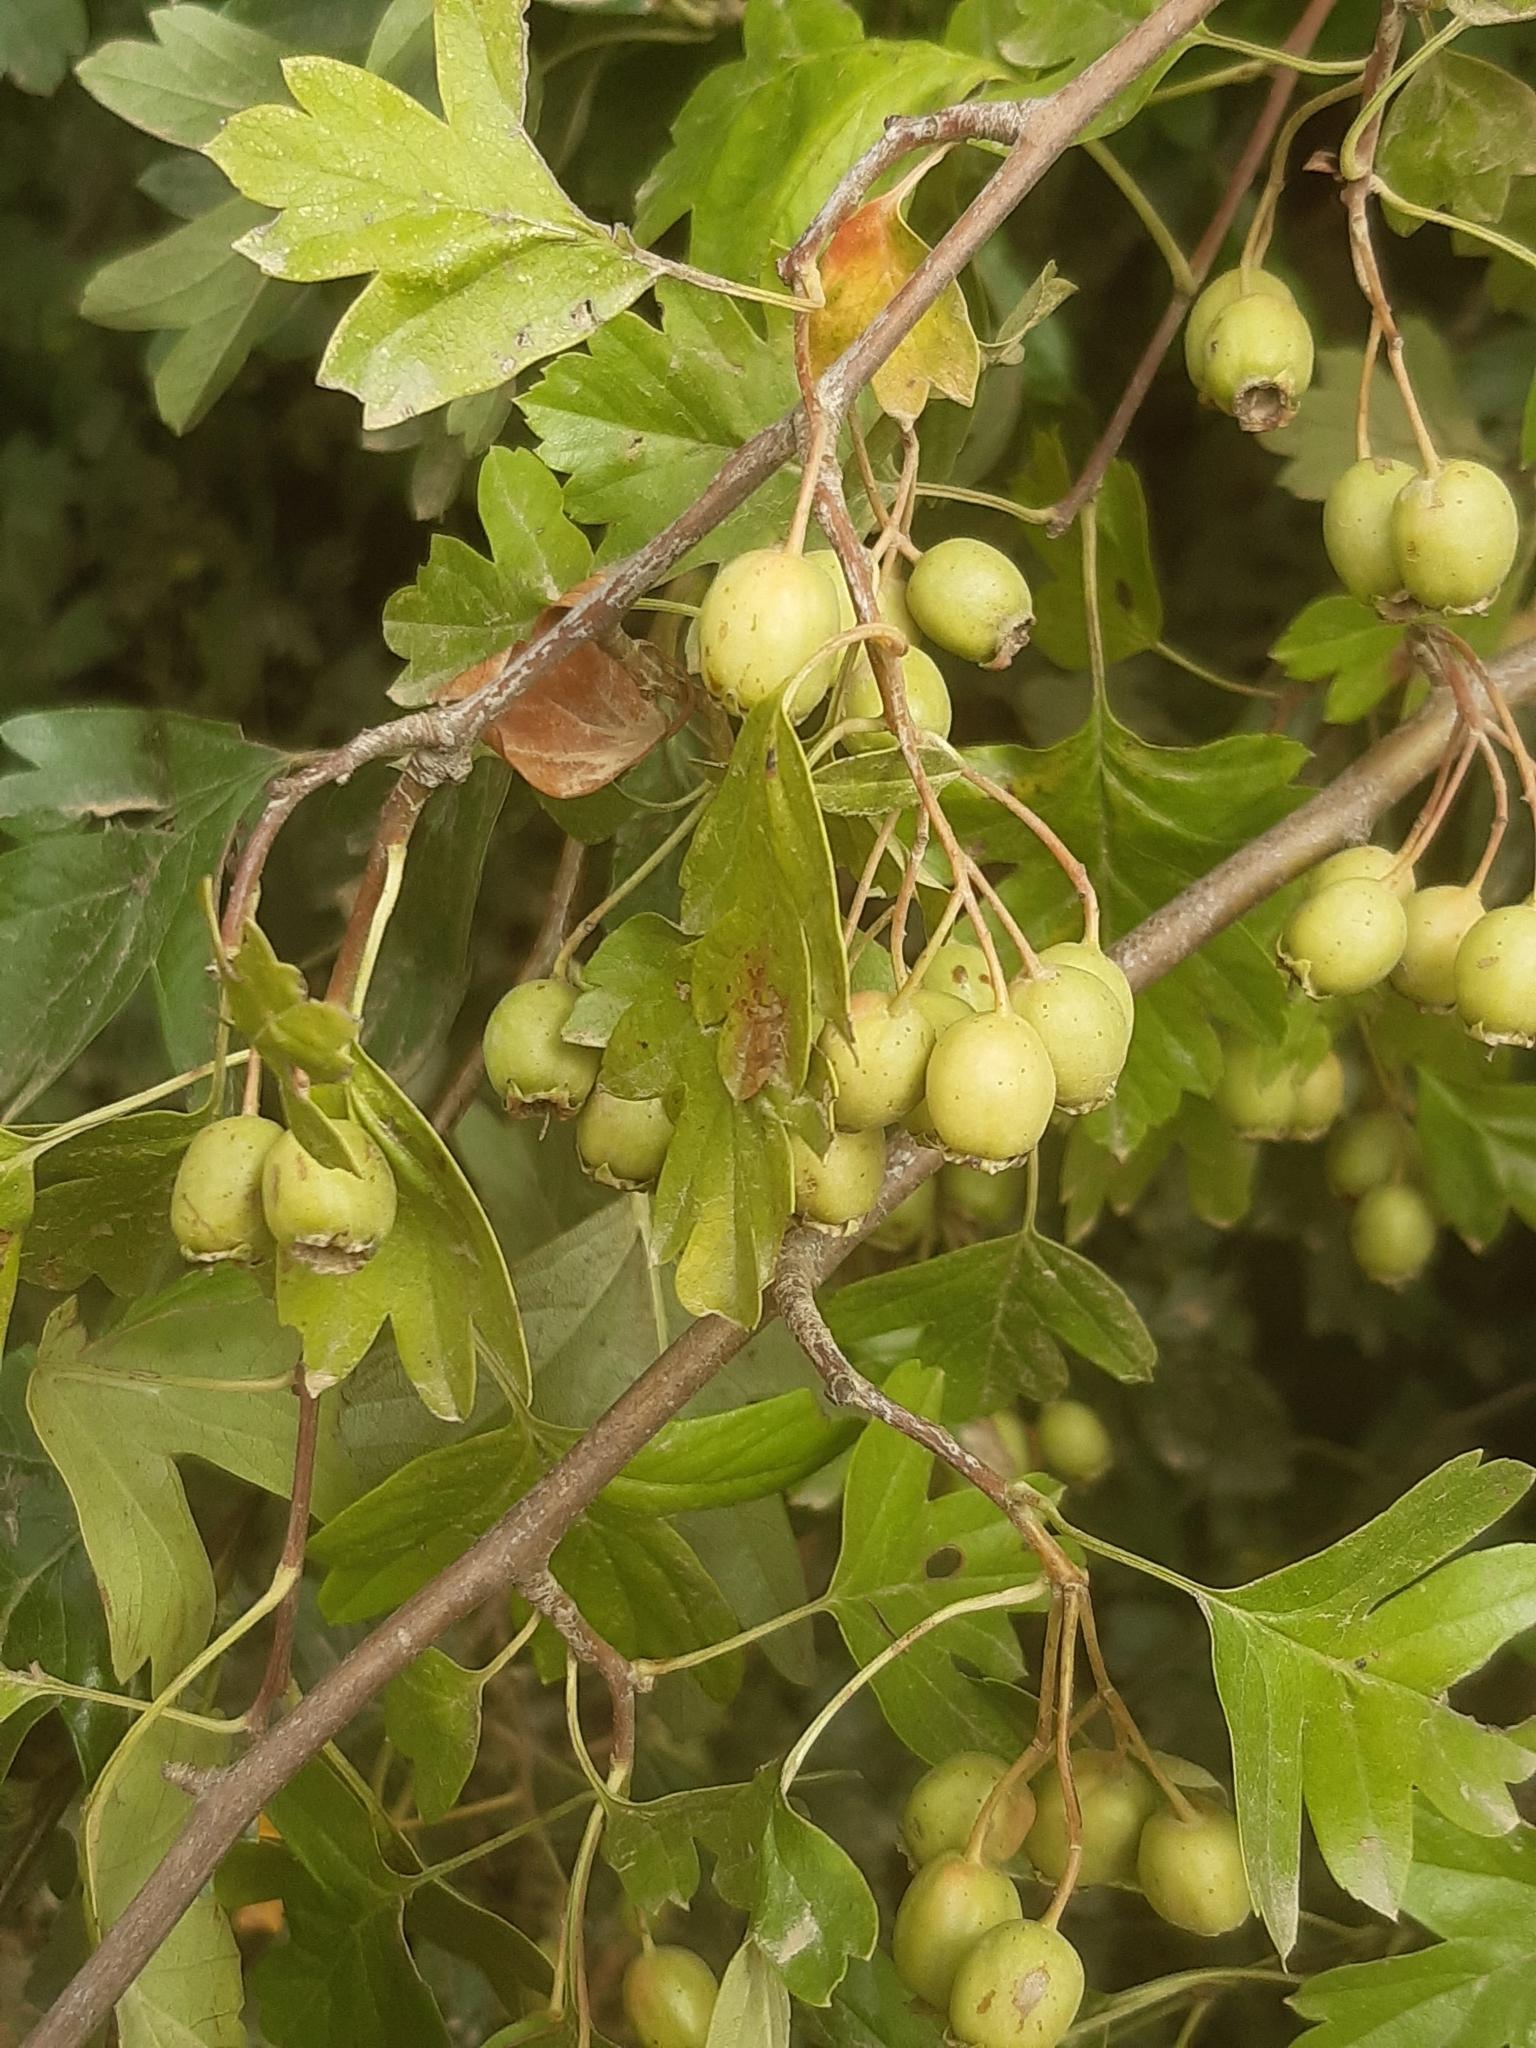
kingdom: Plantae
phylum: Tracheophyta
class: Magnoliopsida
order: Rosales
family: Rosaceae
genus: Crataegus
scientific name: Crataegus monogyna
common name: Hawthorn
